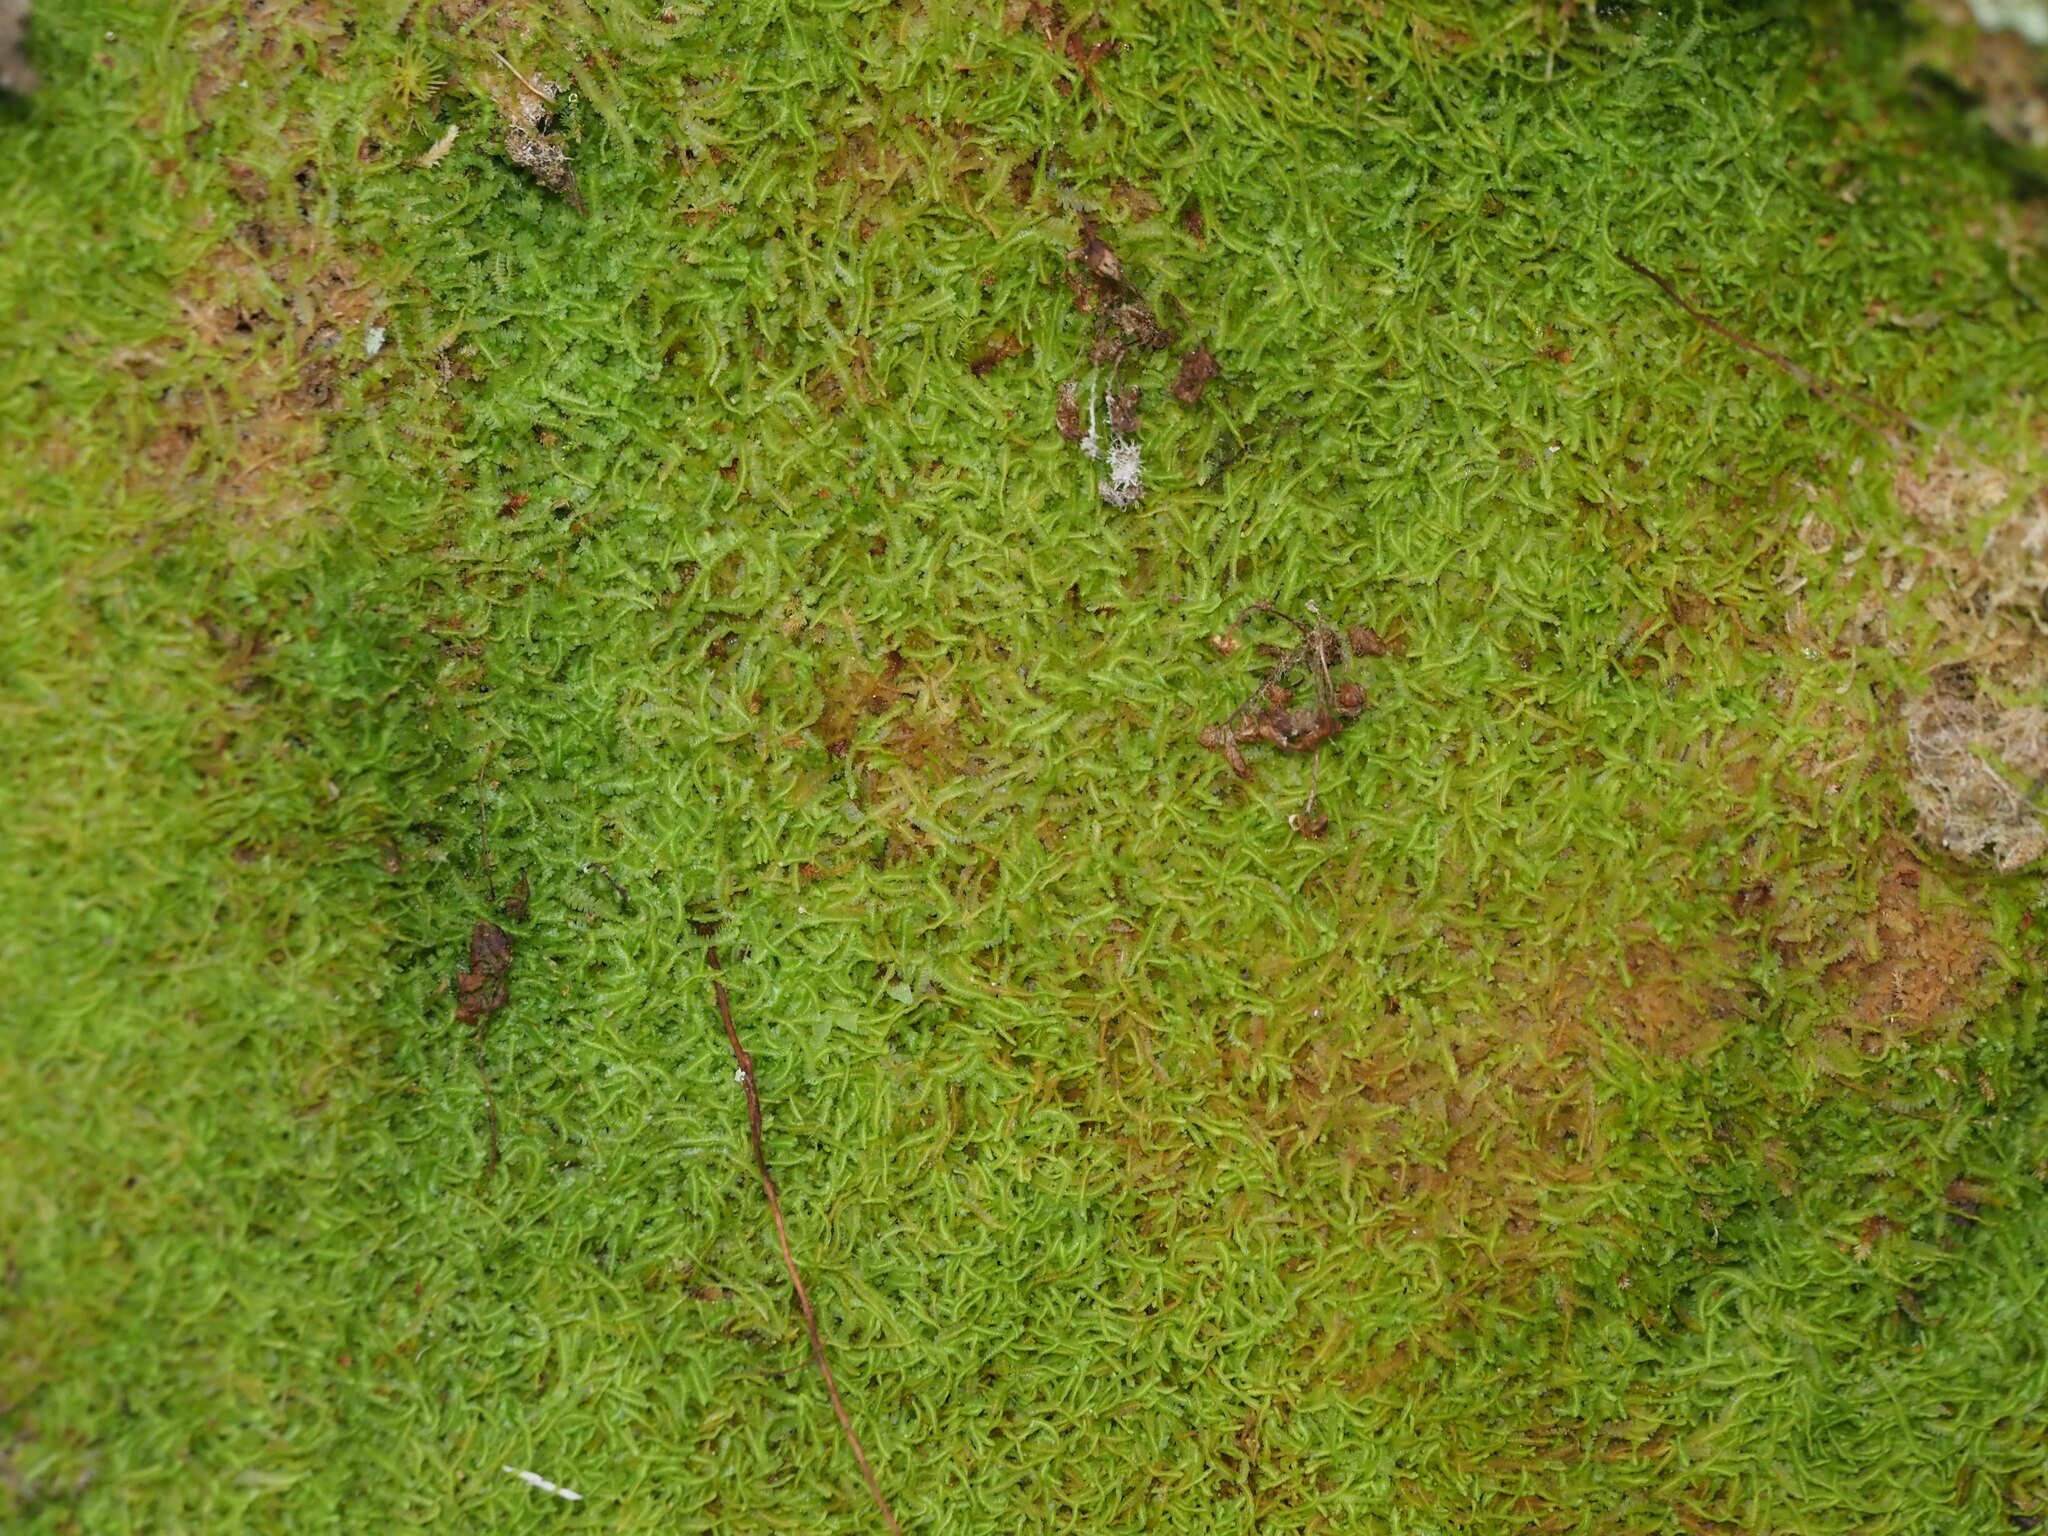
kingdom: Plantae
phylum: Marchantiophyta
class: Jungermanniopsida
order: Jungermanniales
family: Notoscyphaceae
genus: Notoscyphus
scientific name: Notoscyphus lutescens
